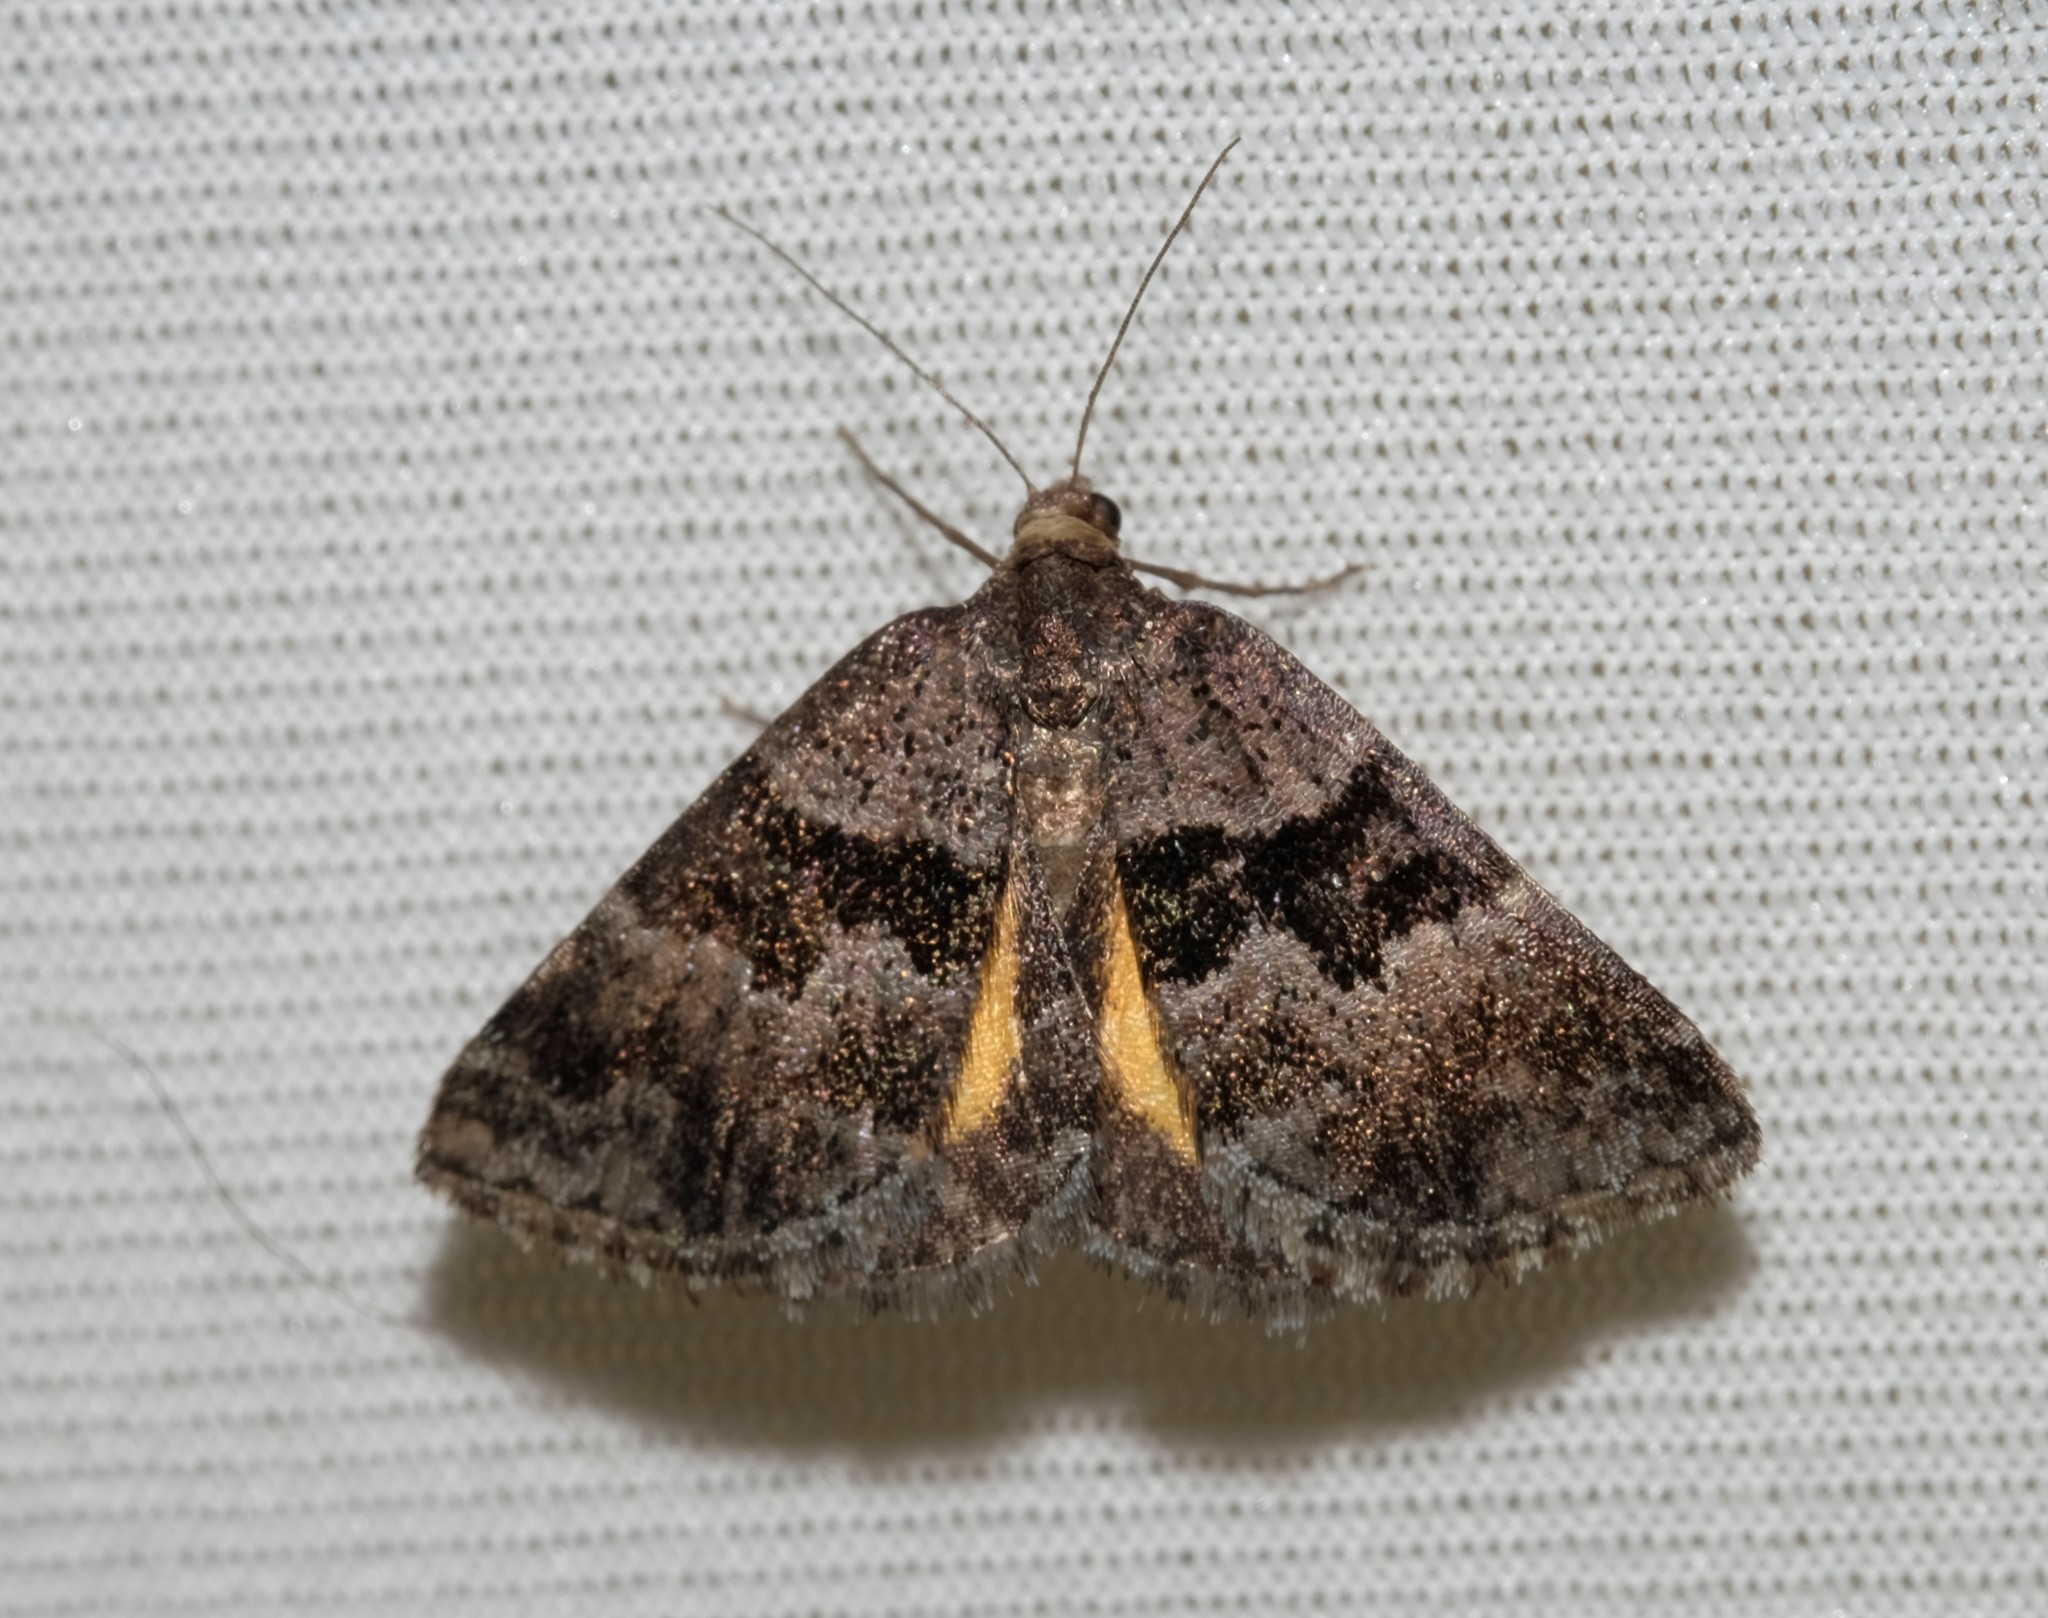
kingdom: Animalia
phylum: Arthropoda
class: Insecta
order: Lepidoptera
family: Geometridae
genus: Dichromodes
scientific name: Dichromodes ainaria
